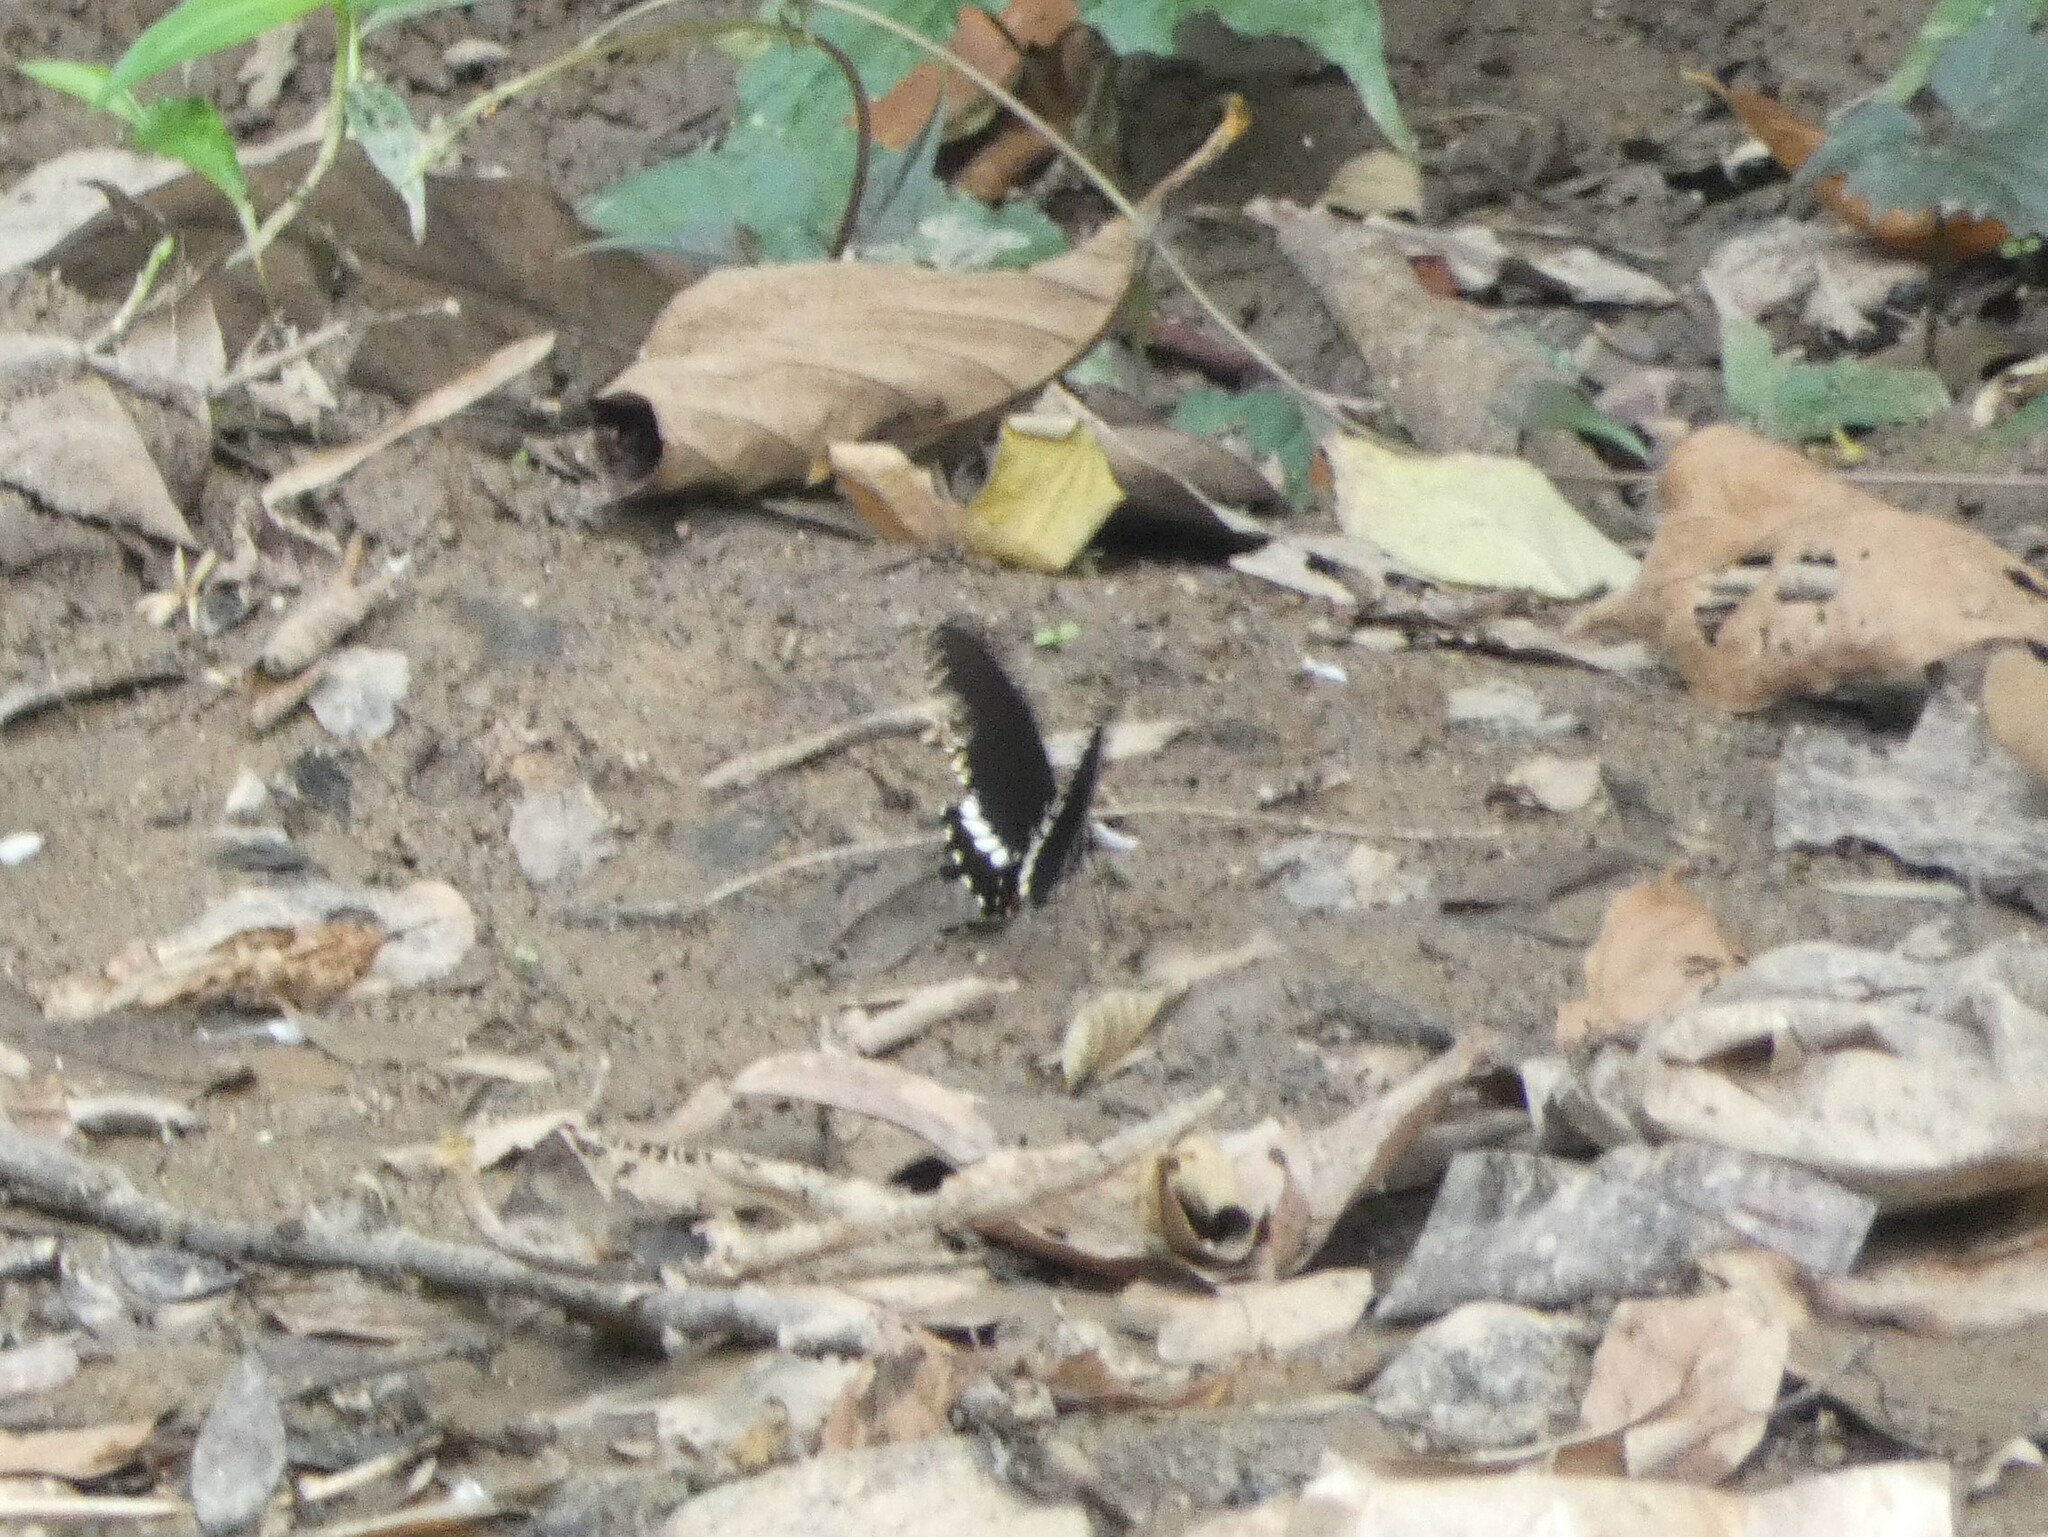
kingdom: Animalia
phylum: Arthropoda
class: Insecta
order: Lepidoptera
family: Papilionidae
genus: Papilio
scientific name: Papilio polytes
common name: Common mormon
